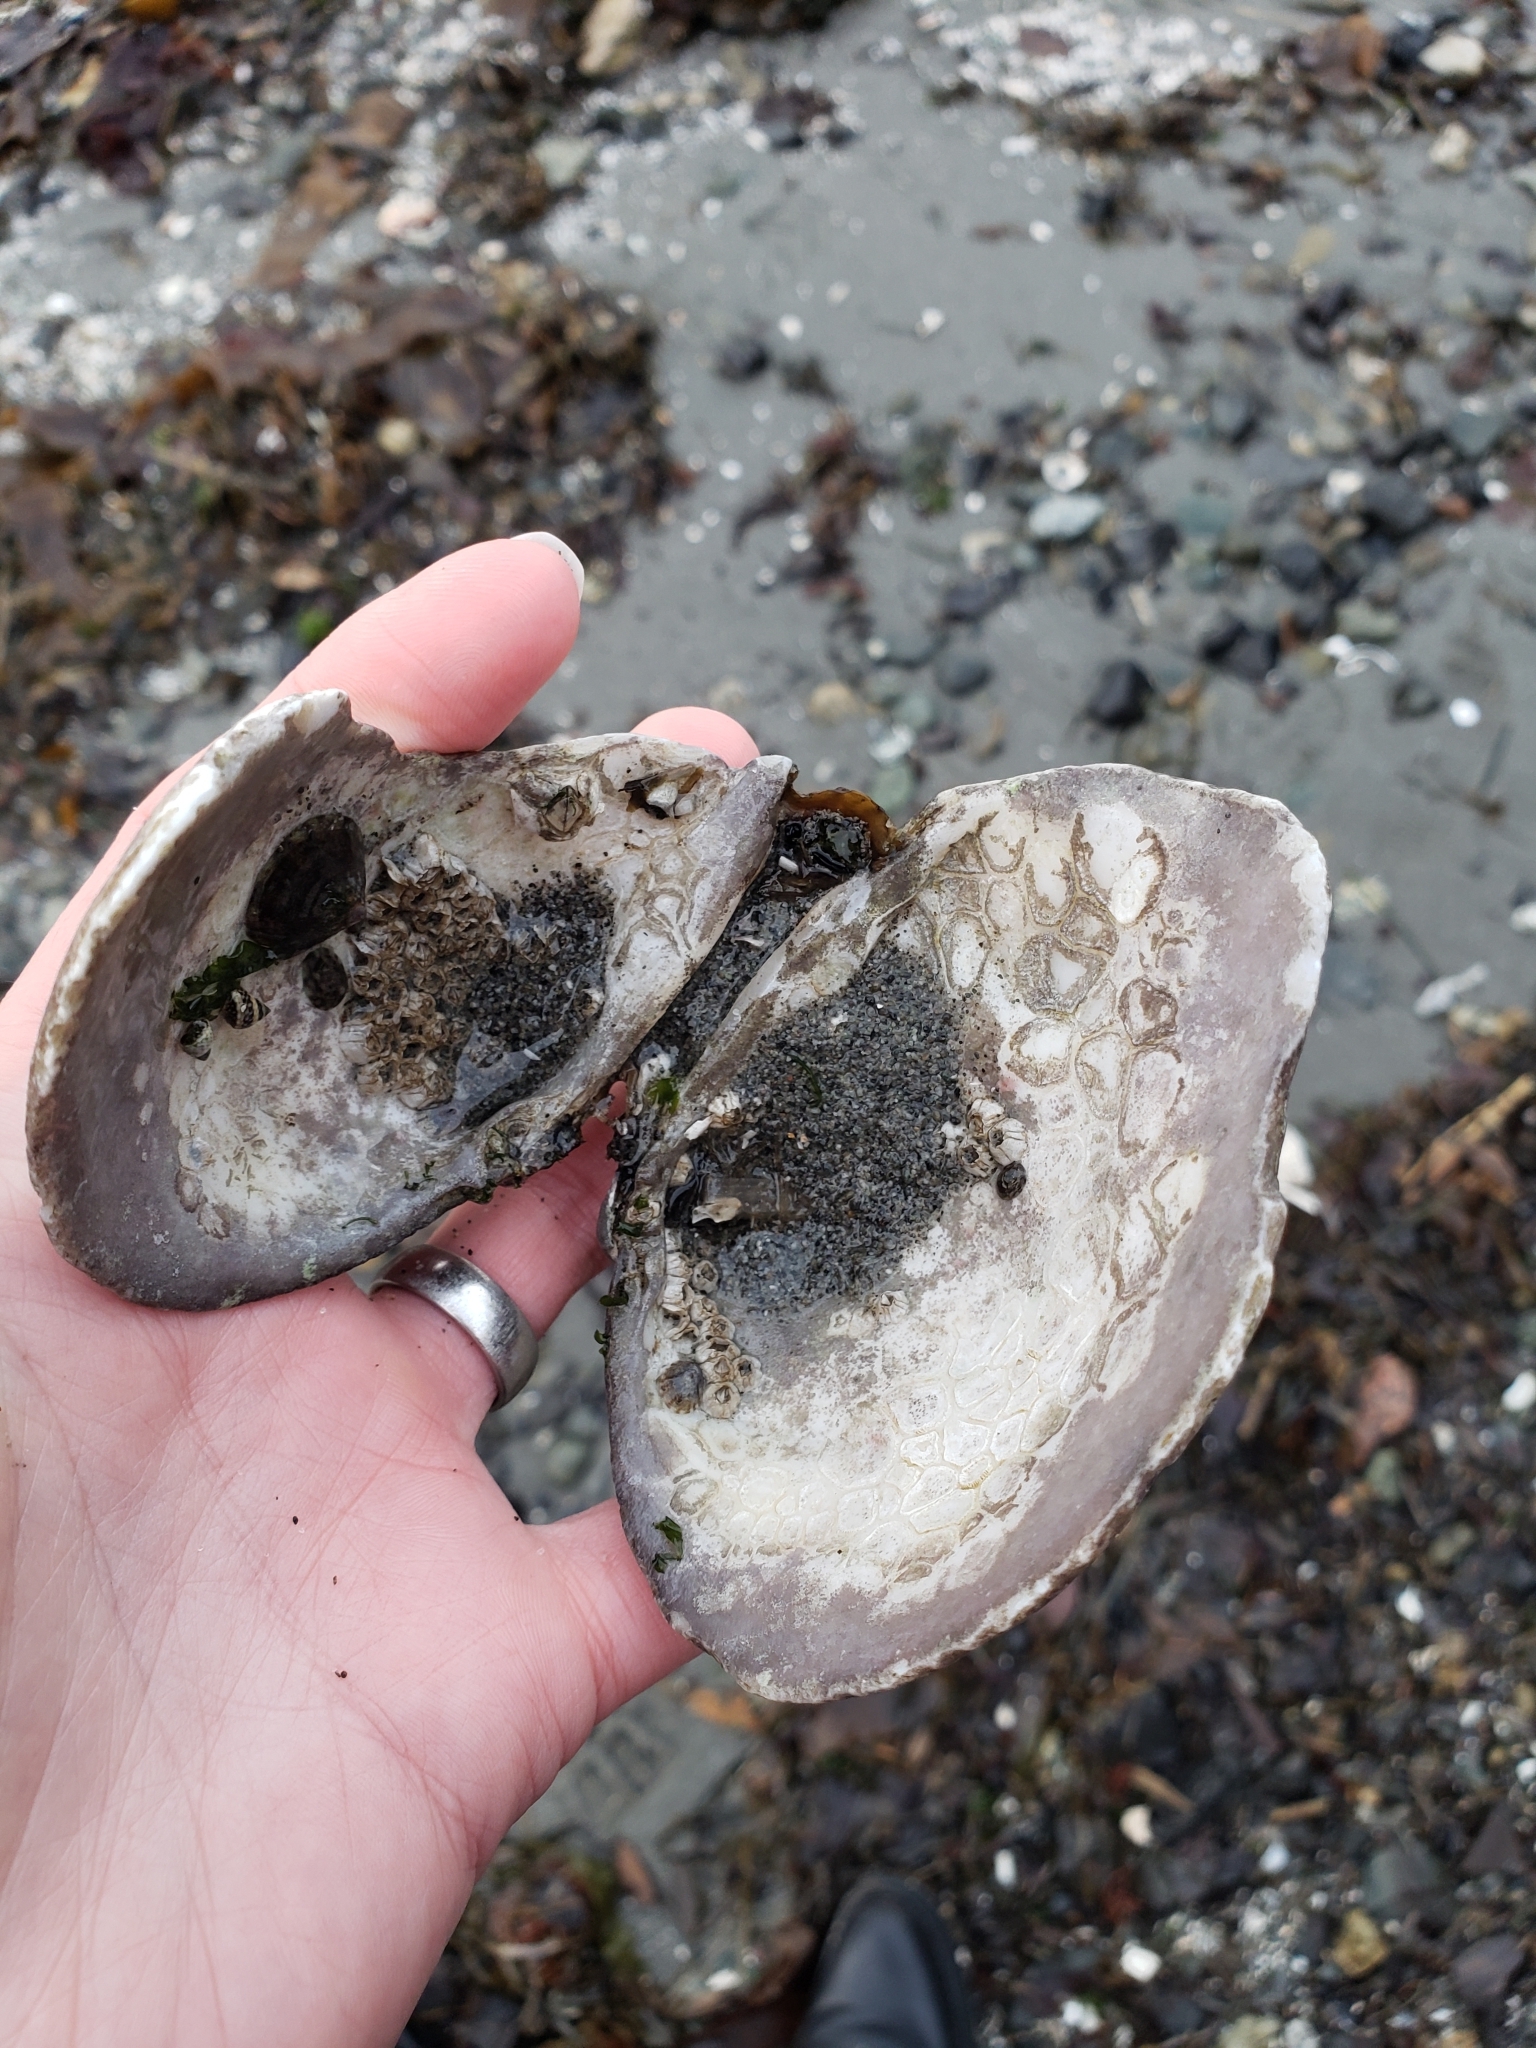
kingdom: Animalia
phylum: Mollusca
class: Bivalvia
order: Venerida
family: Veneridae
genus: Saxidomus
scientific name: Saxidomus gigantea
